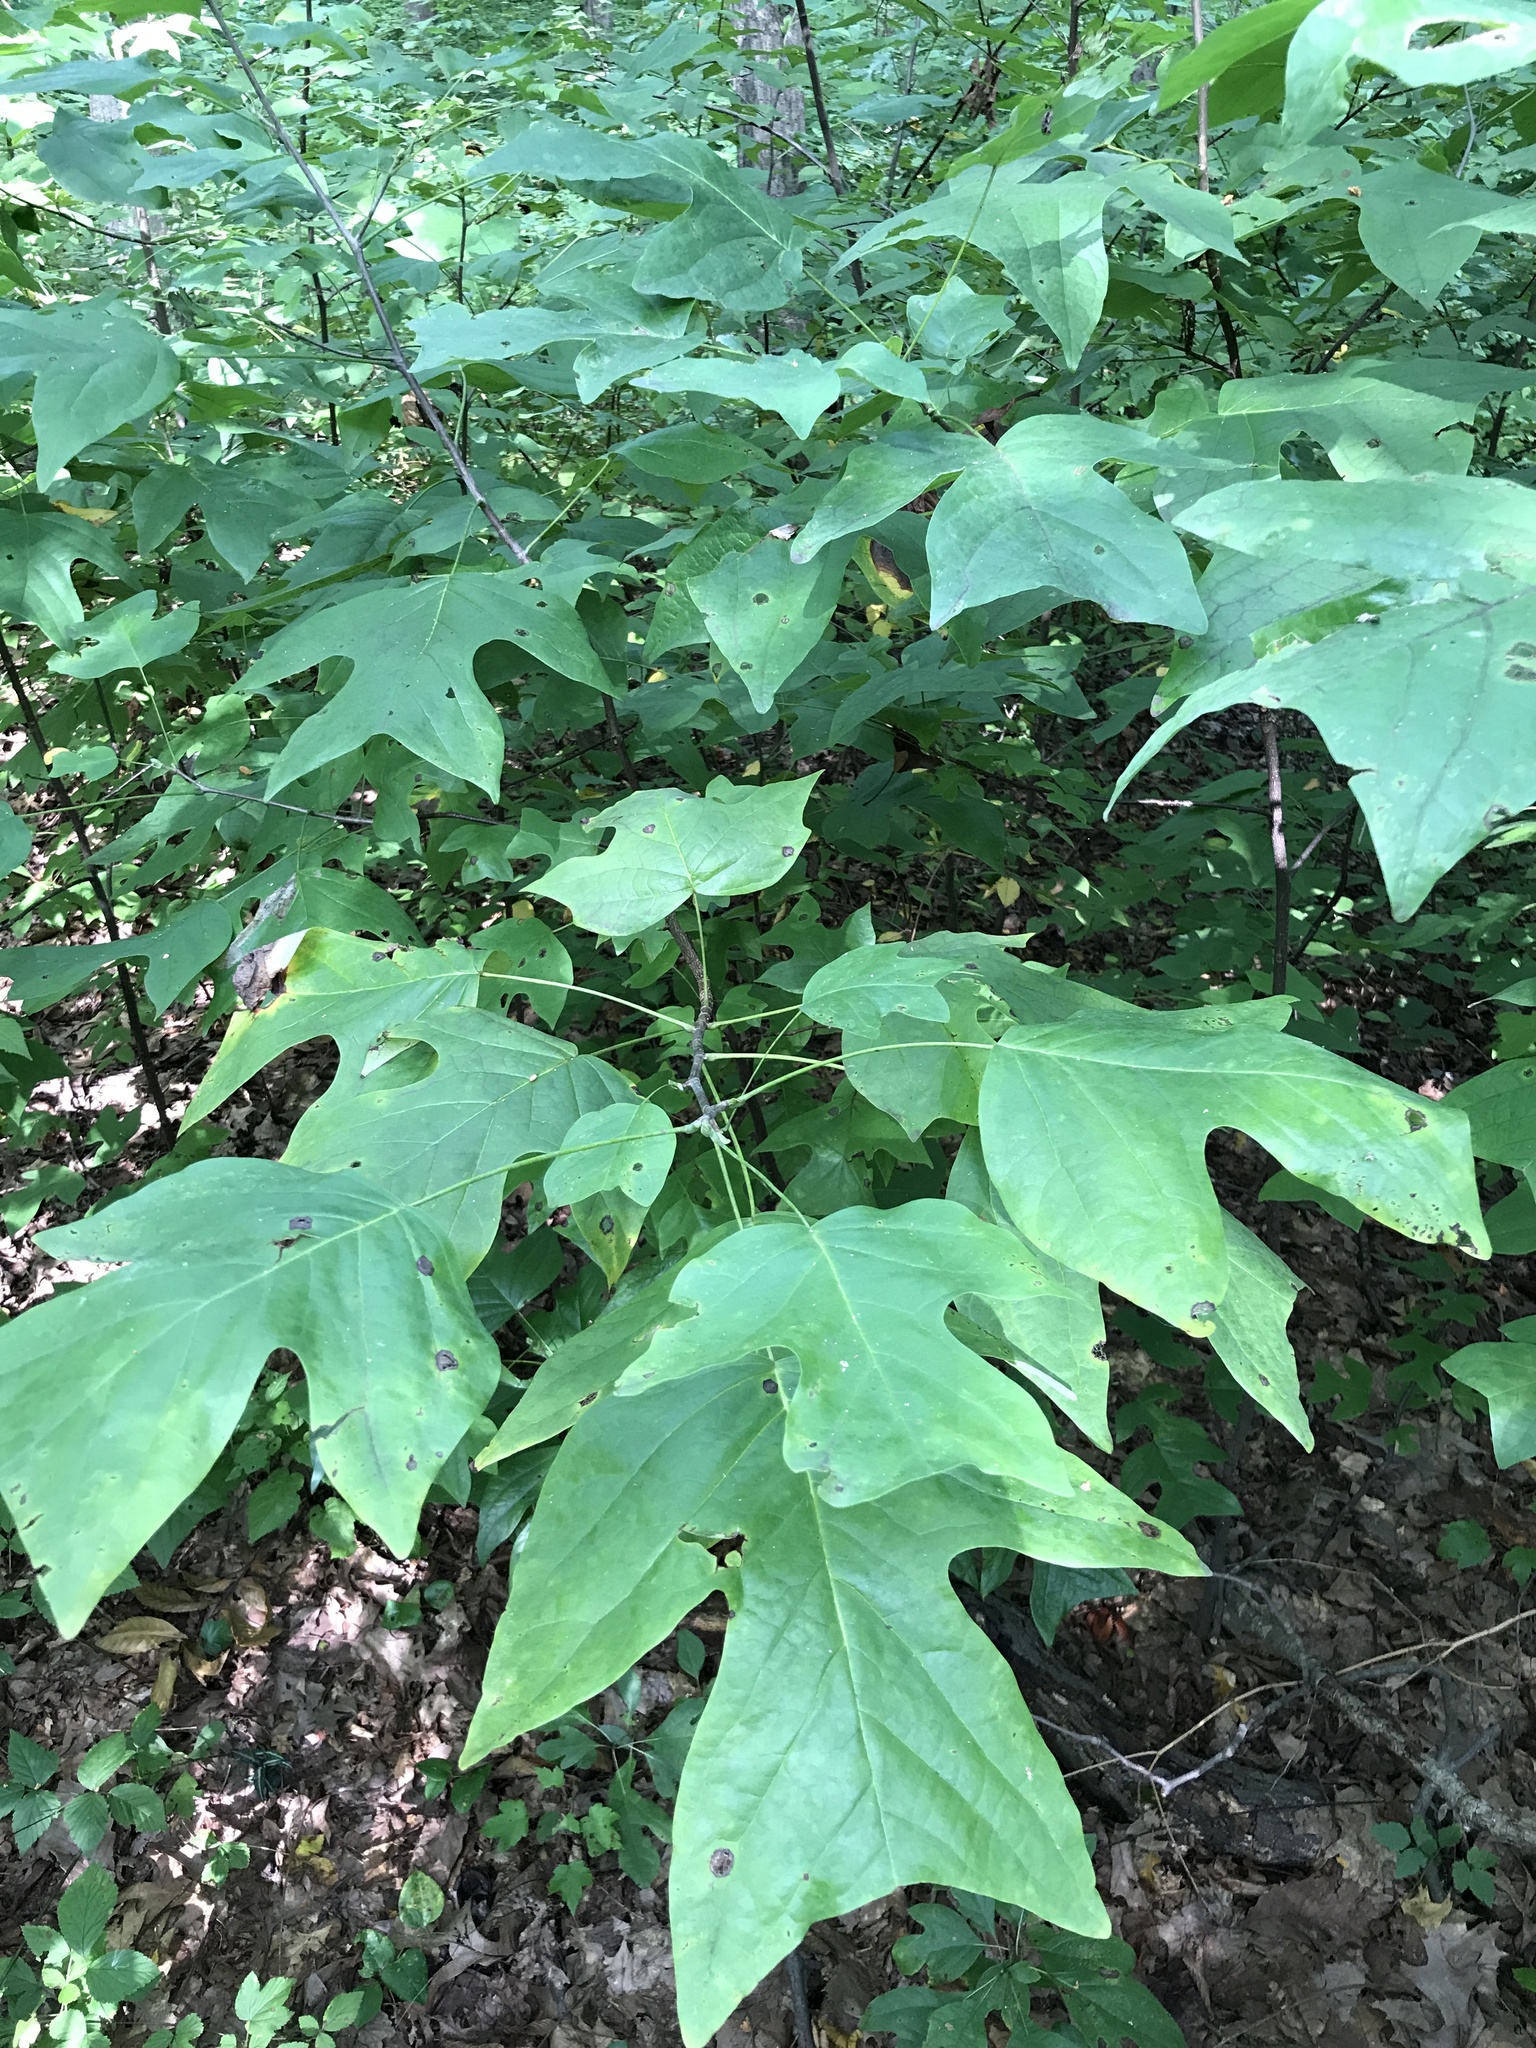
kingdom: Plantae
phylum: Tracheophyta
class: Magnoliopsida
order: Magnoliales
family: Magnoliaceae
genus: Liriodendron
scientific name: Liriodendron tulipifera
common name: Tulip tree
